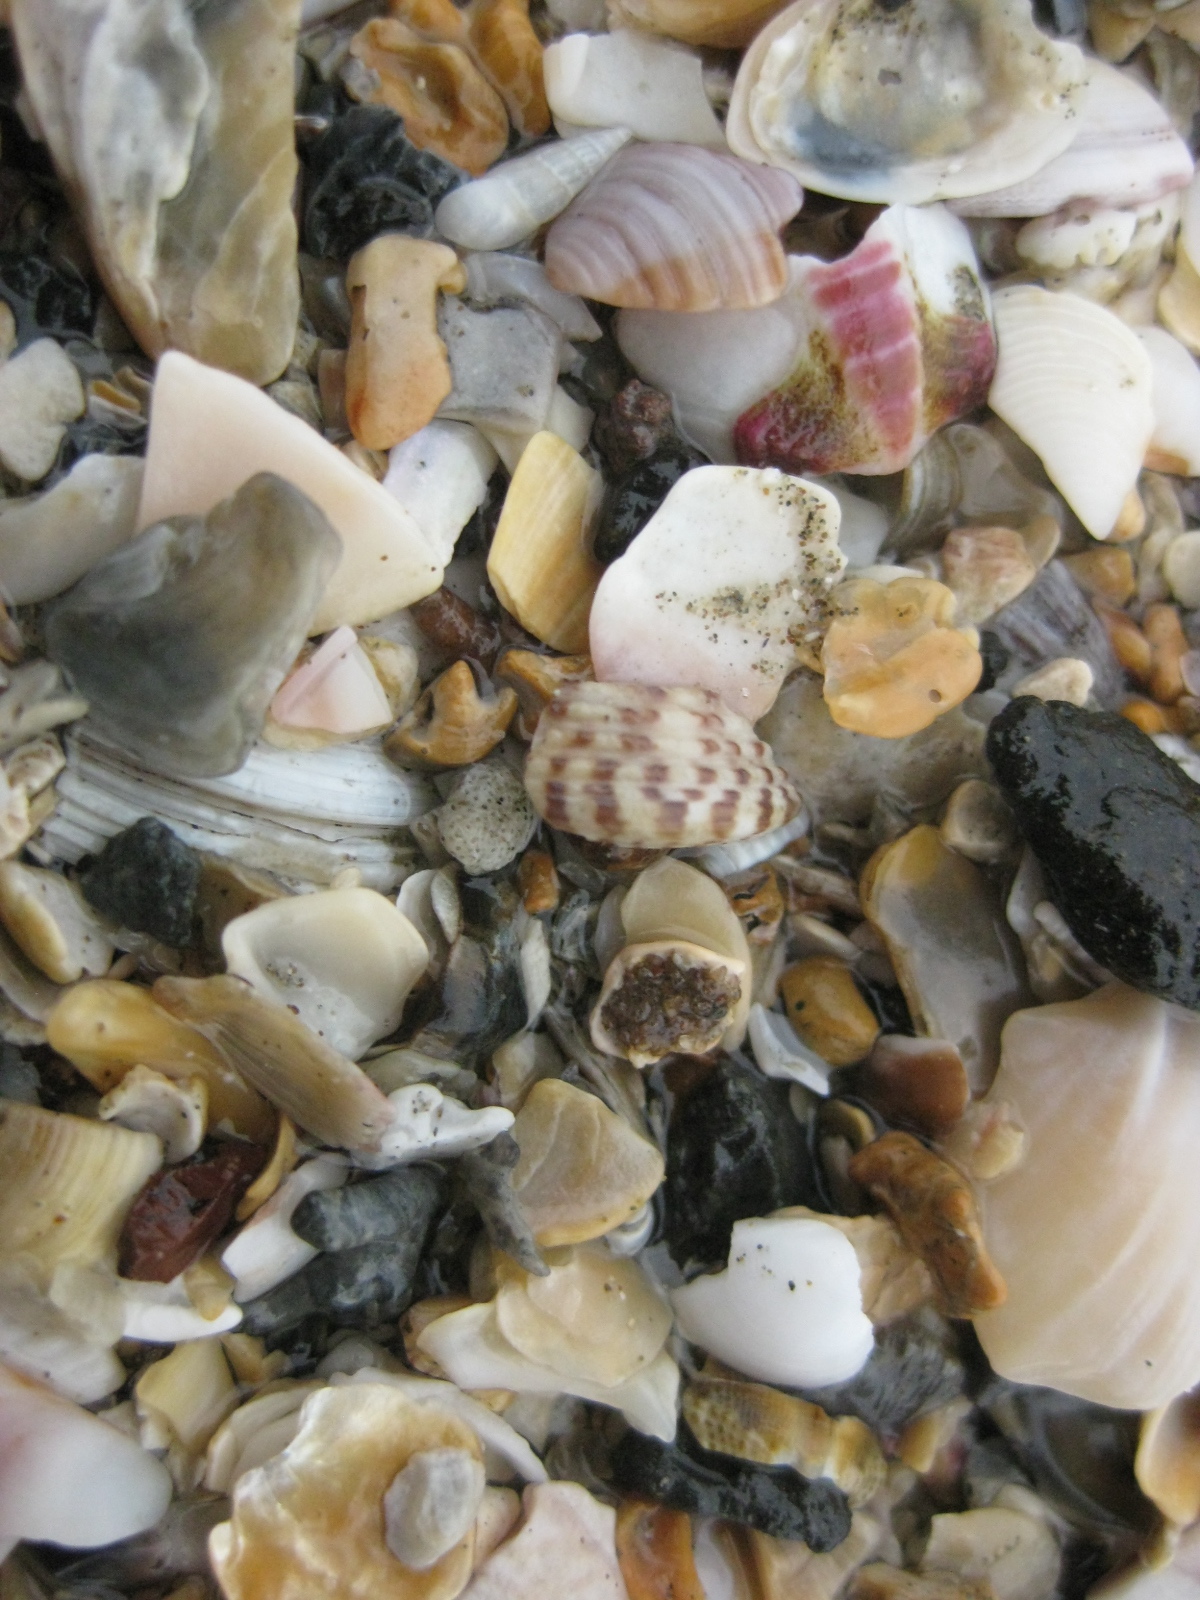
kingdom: Animalia
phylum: Mollusca
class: Gastropoda
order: Trochida
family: Trochidae
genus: Coelotrochus
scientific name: Coelotrochus tiaratus
